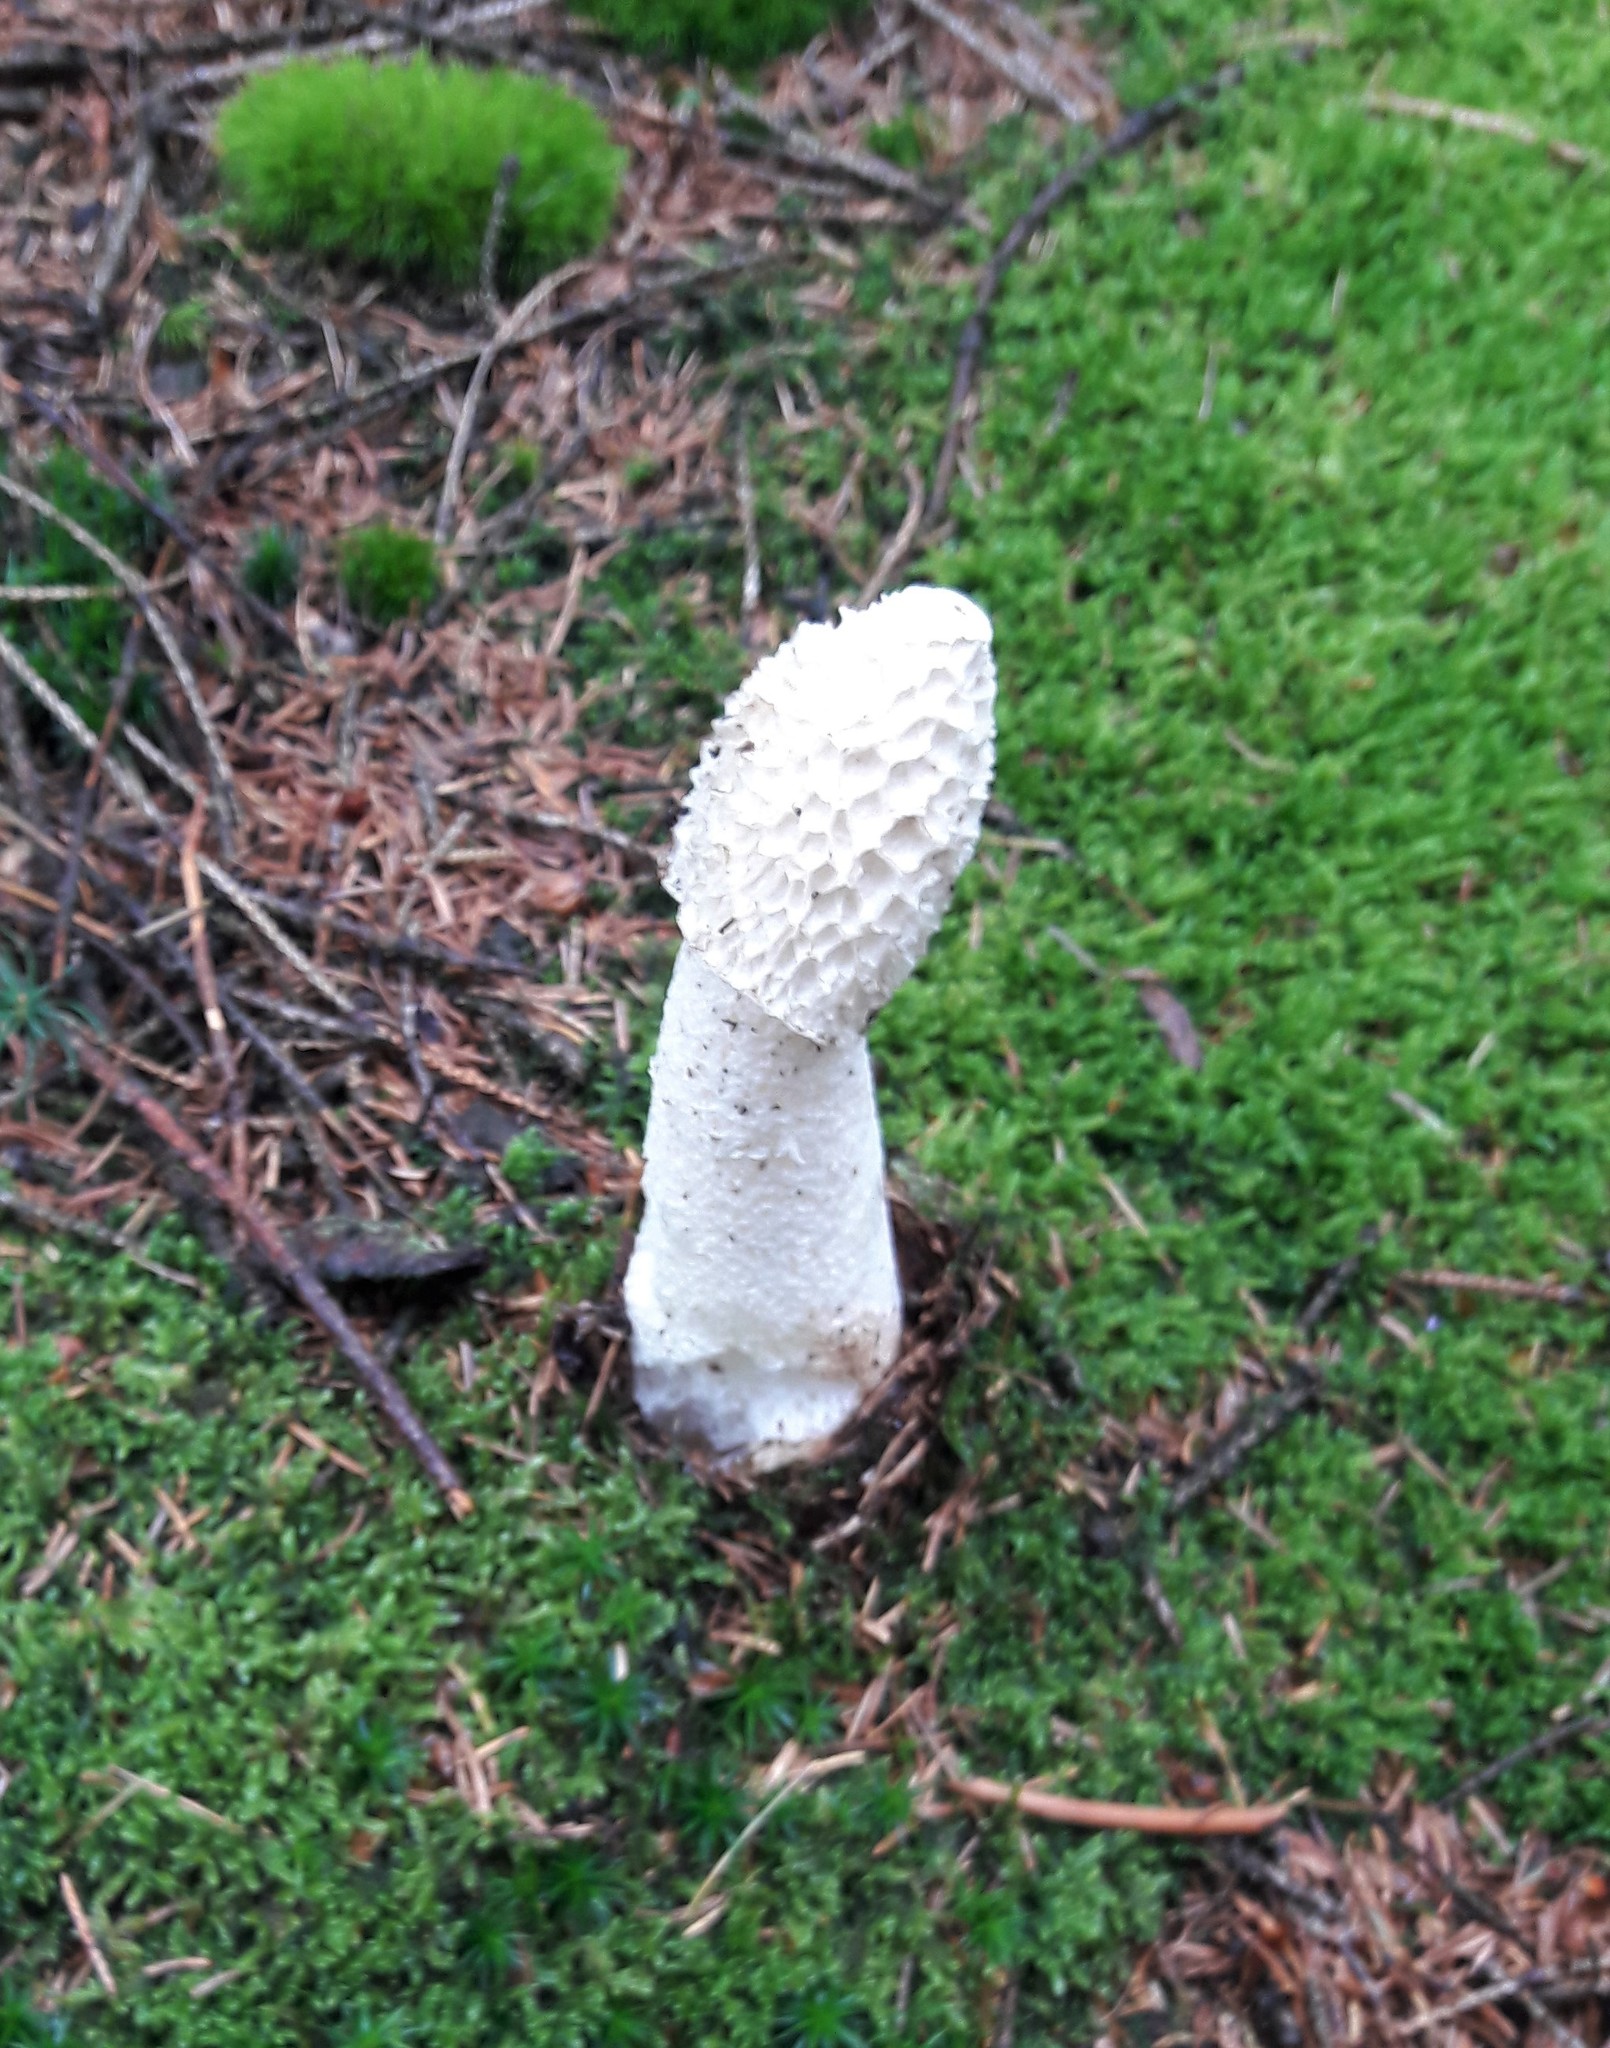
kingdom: Fungi
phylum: Basidiomycota
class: Agaricomycetes
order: Phallales
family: Phallaceae
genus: Phallus
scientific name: Phallus impudicus
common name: Common stinkhorn
